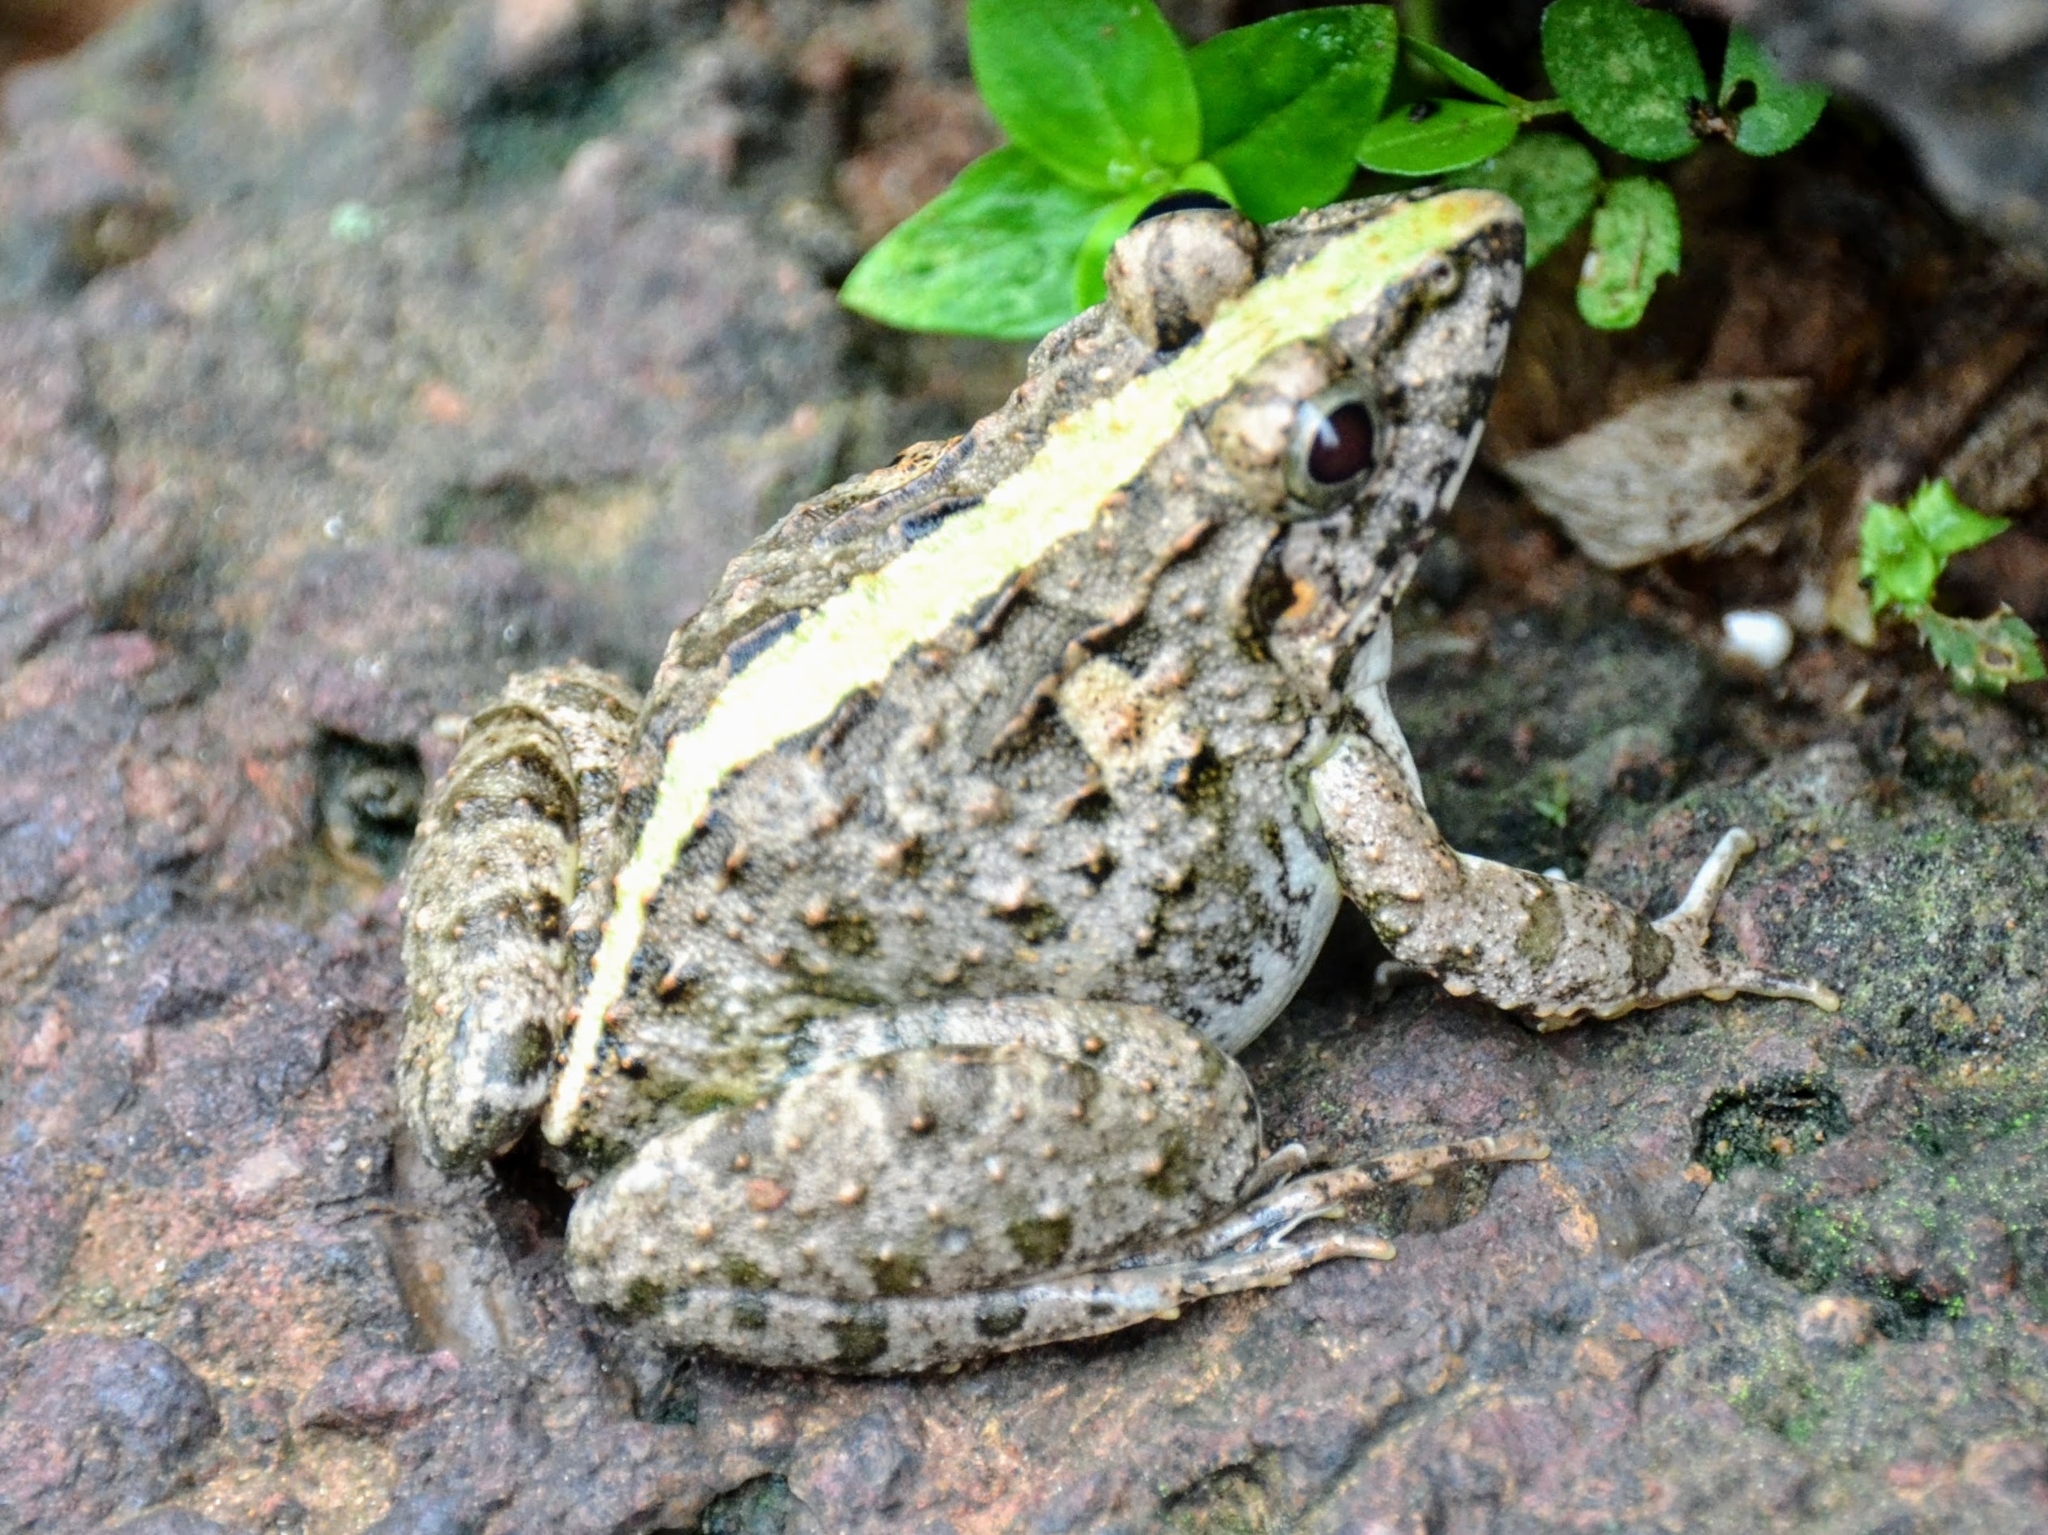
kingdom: Animalia
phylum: Chordata
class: Amphibia
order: Anura
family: Dicroglossidae
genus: Fejervarya
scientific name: Fejervarya limnocharis
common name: Asian grass frog/common pond frog/field frog/grass frog/indian rice frog
